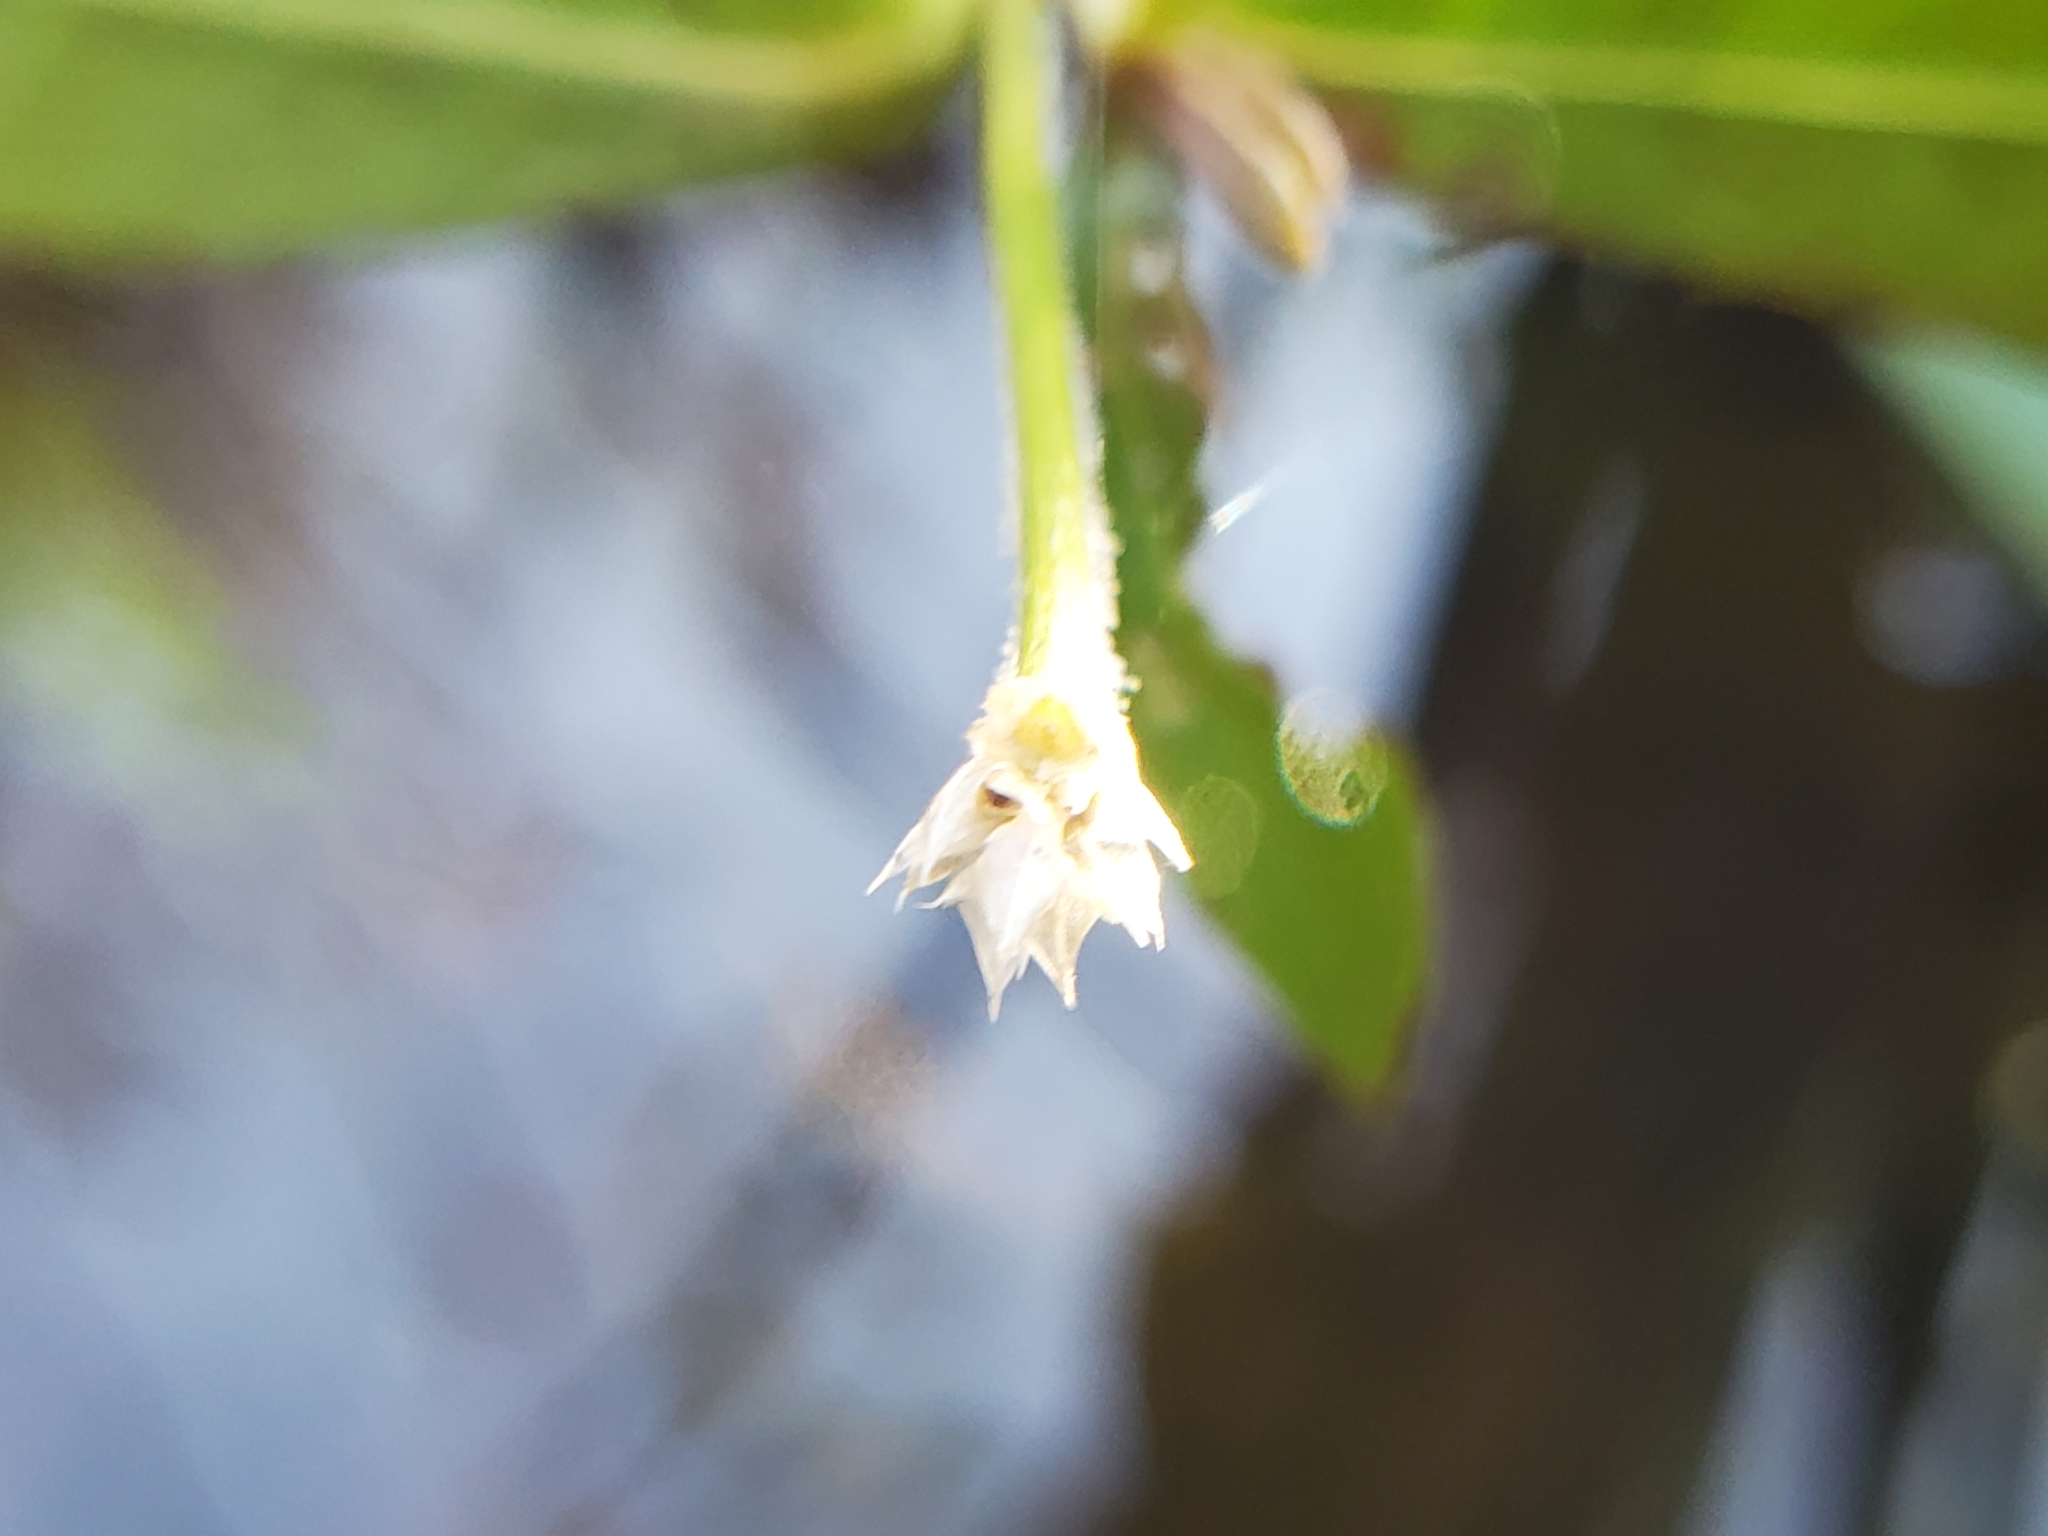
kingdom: Plantae
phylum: Tracheophyta
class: Magnoliopsida
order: Caryophyllales
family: Amaranthaceae
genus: Alternanthera
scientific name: Alternanthera philoxeroides
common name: Alligatorweed
